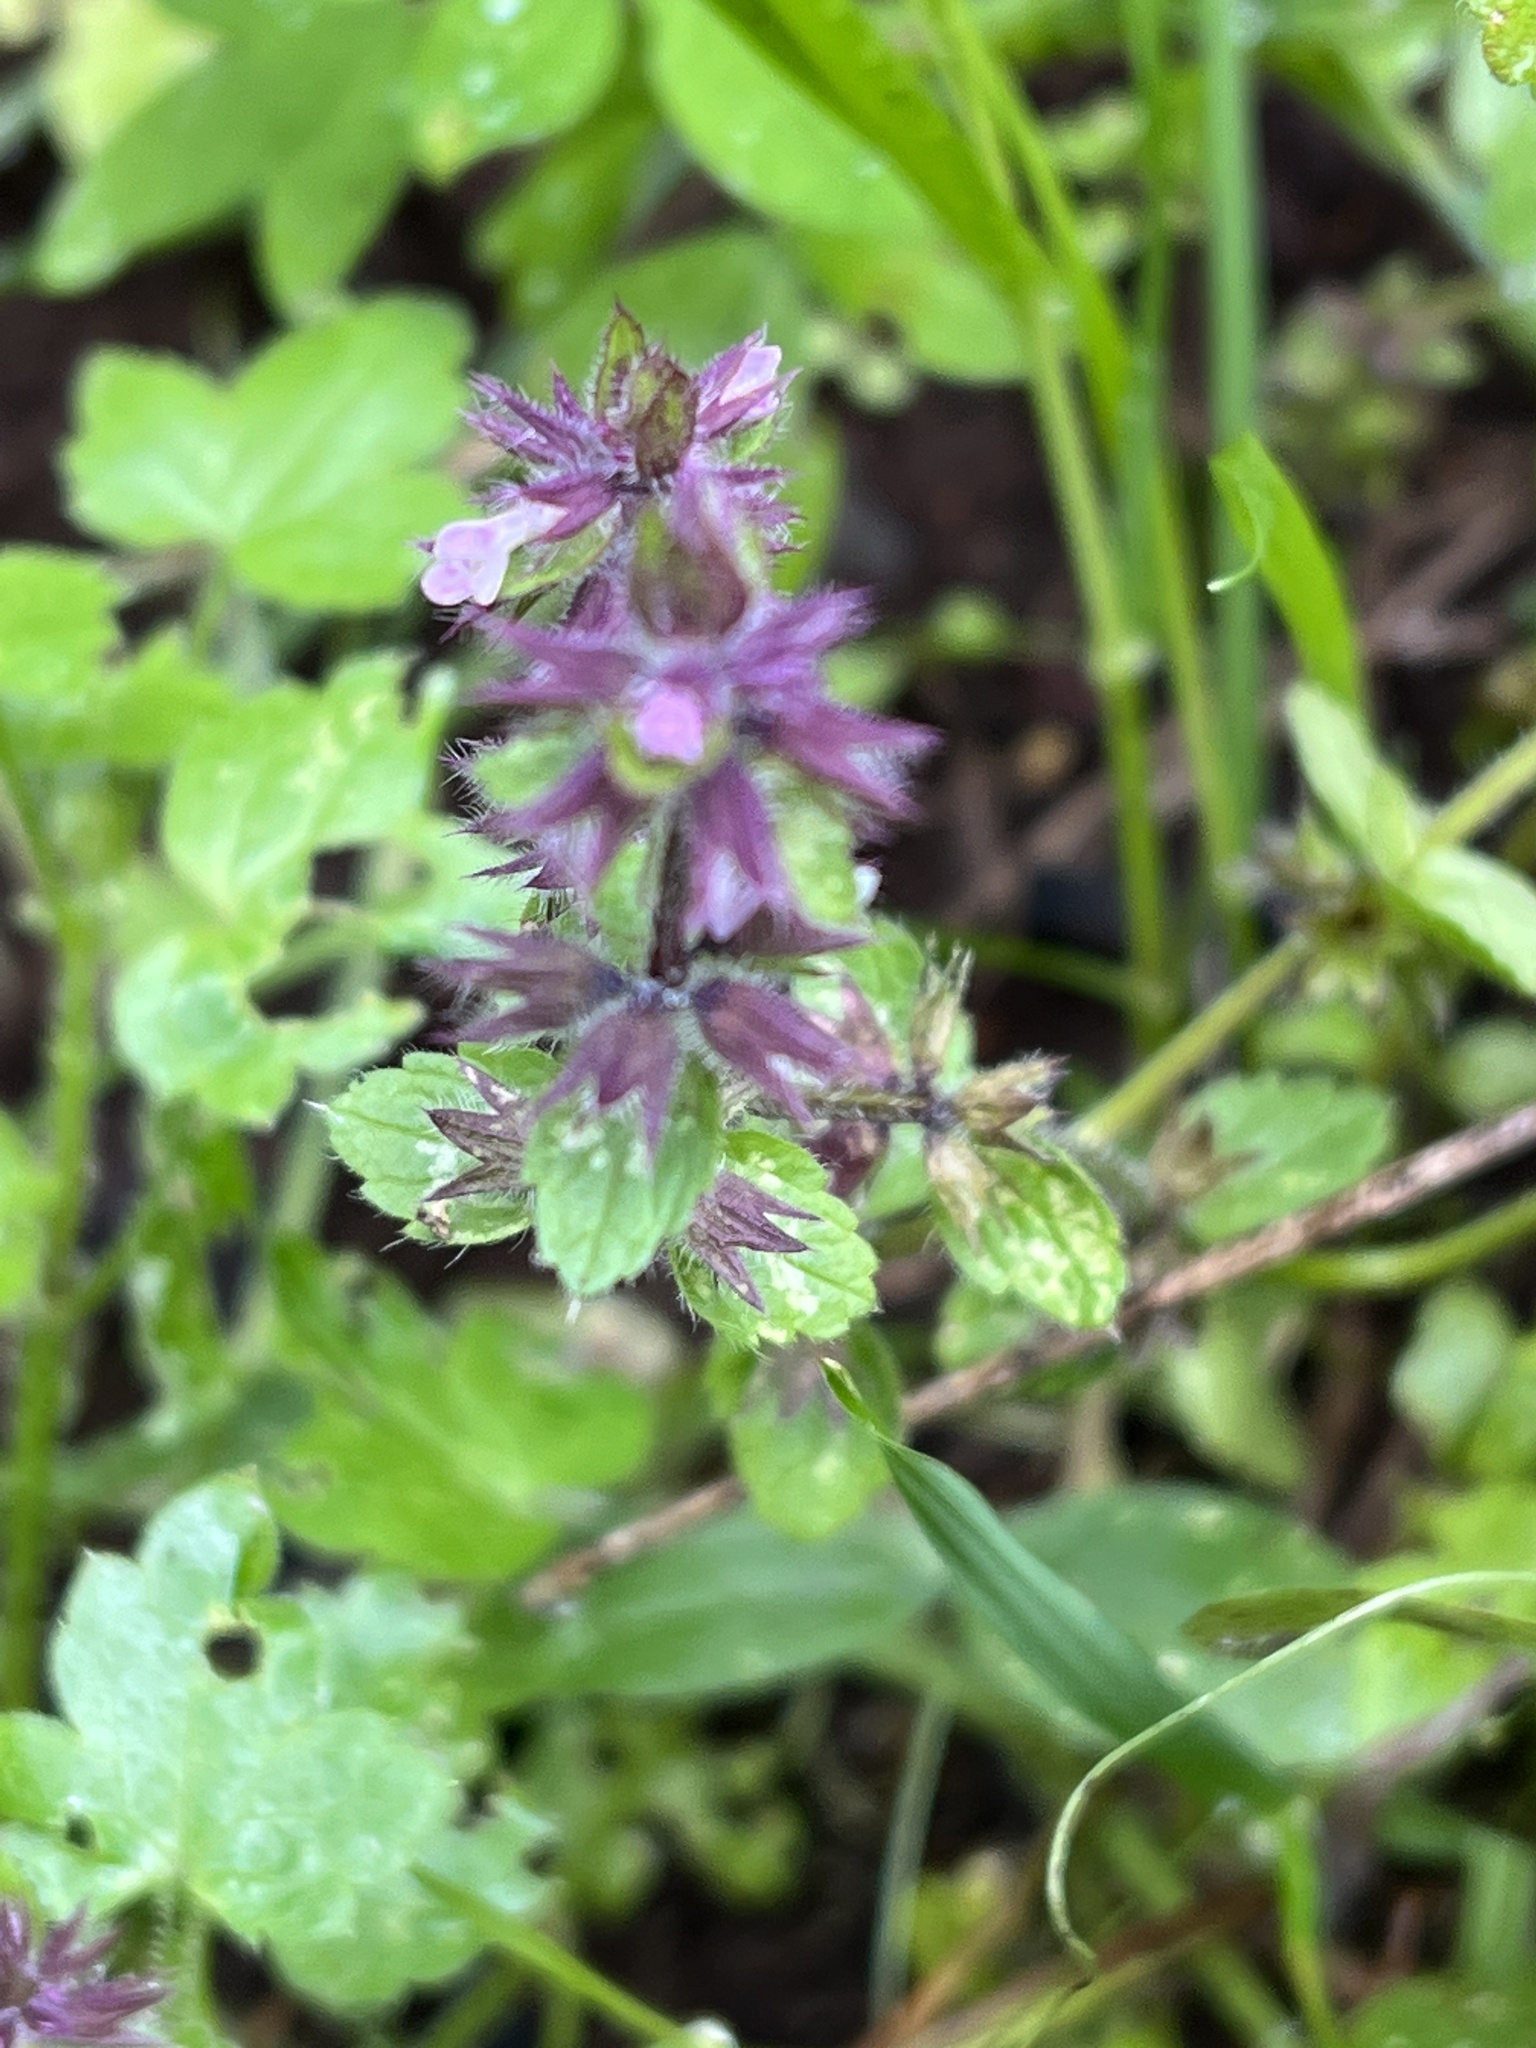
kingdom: Plantae
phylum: Tracheophyta
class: Magnoliopsida
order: Lamiales
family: Lamiaceae
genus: Stachys
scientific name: Stachys arvensis
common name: Field woundwort
